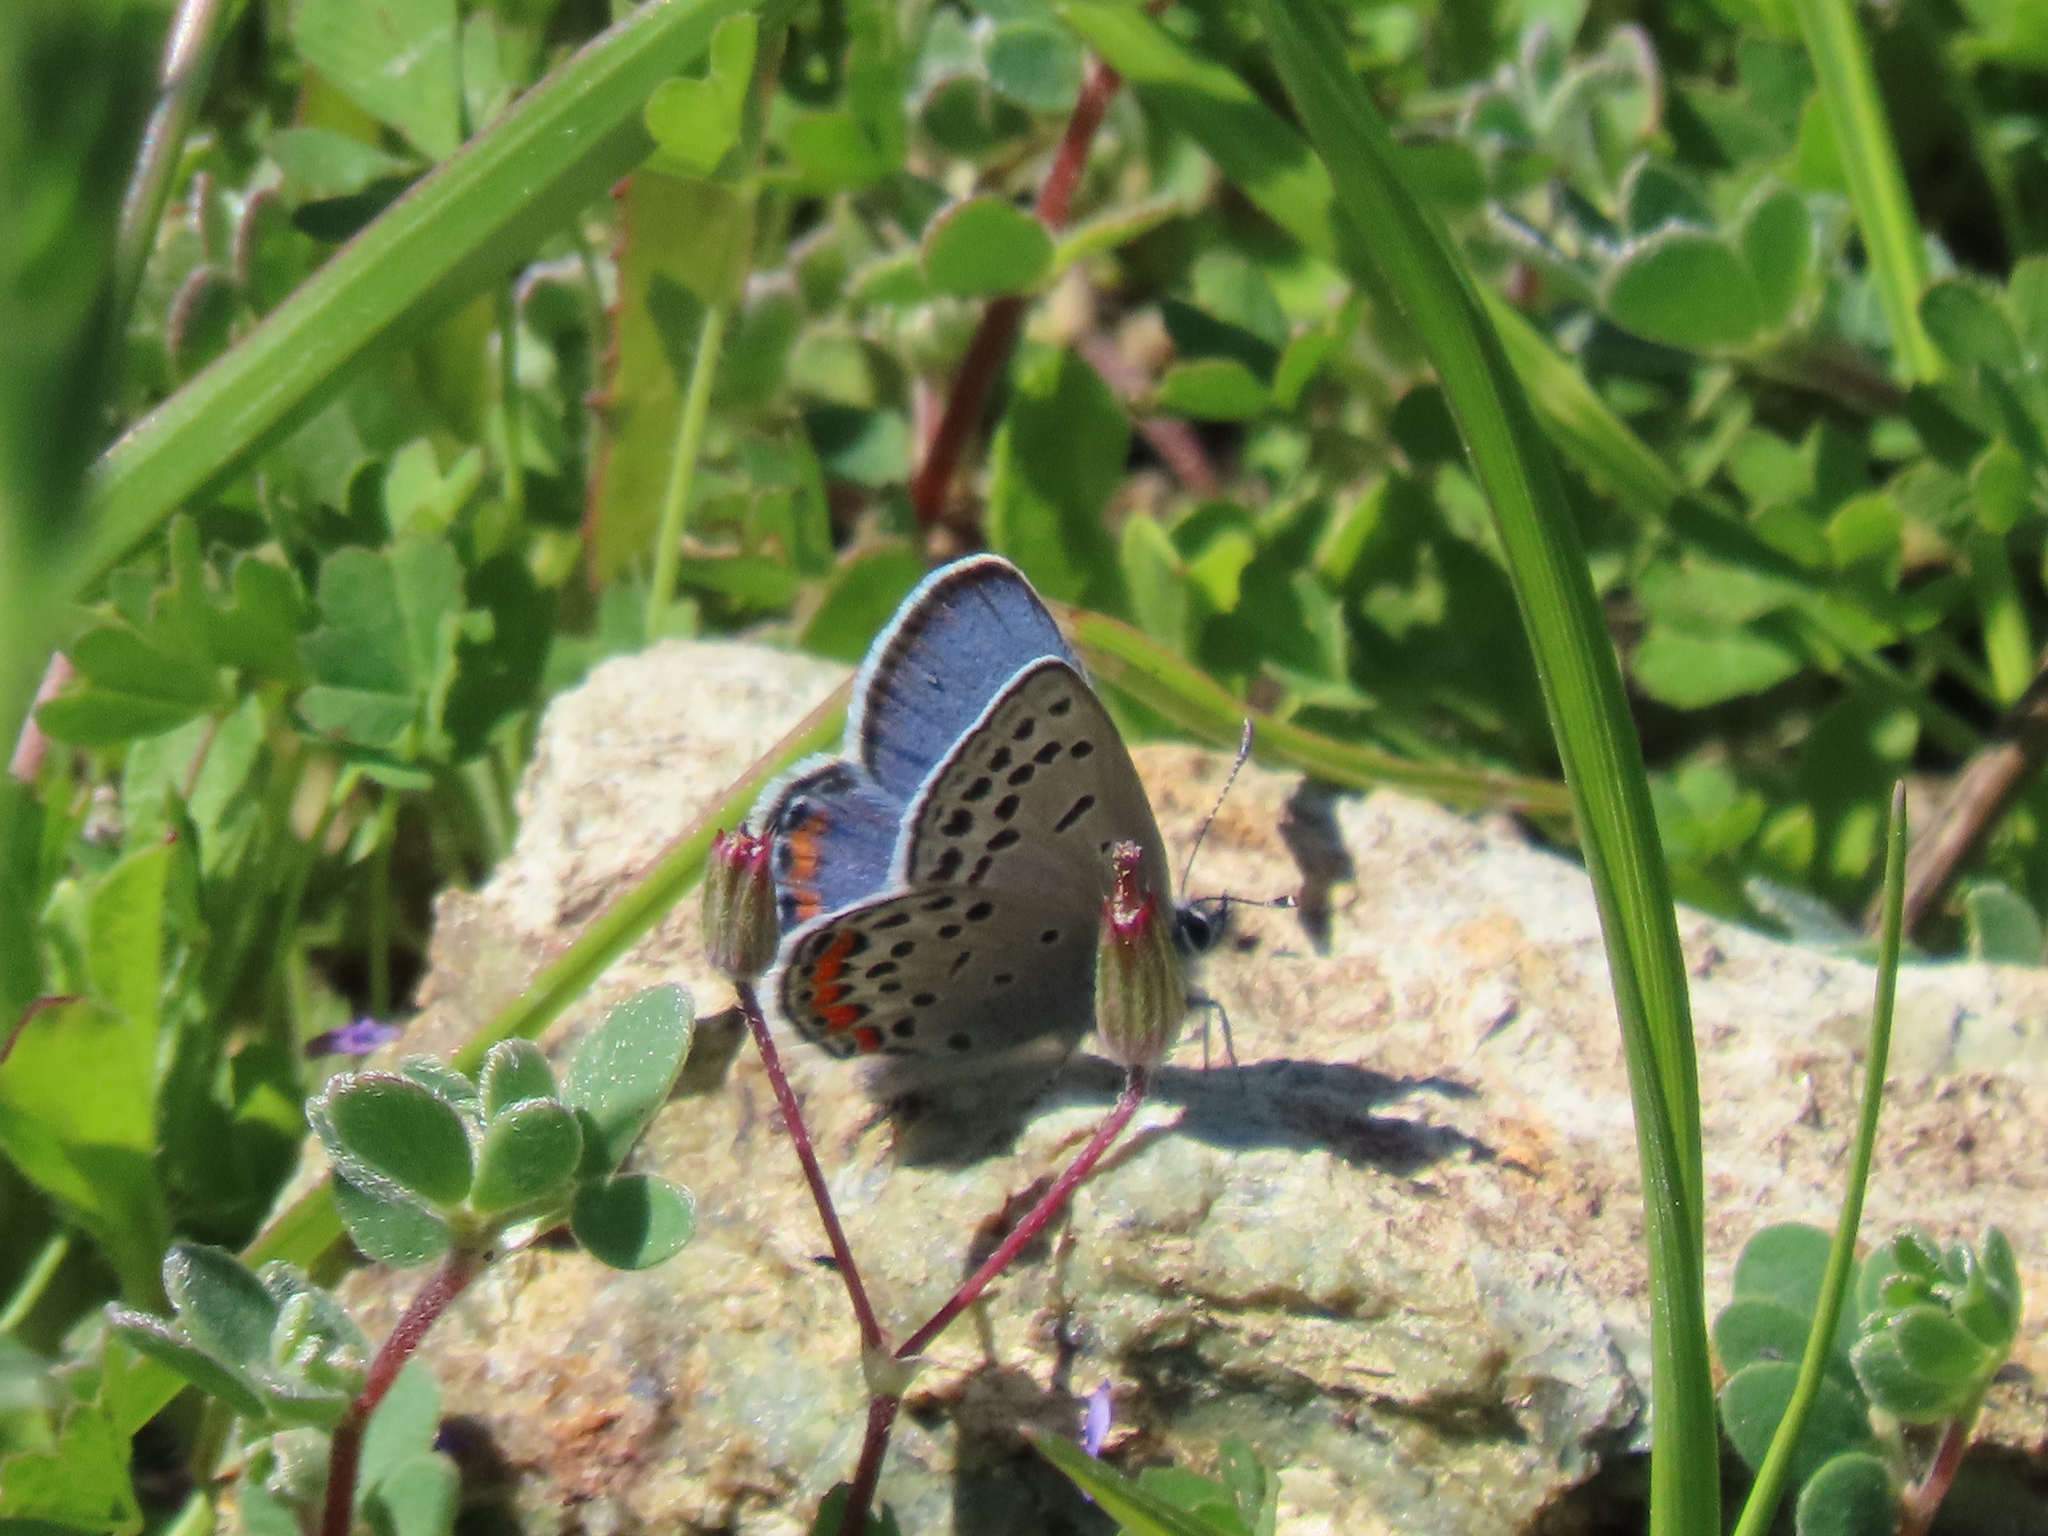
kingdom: Animalia
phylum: Arthropoda
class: Insecta
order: Lepidoptera
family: Lycaenidae
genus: Icaricia
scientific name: Icaricia acmon
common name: Acmon blue
